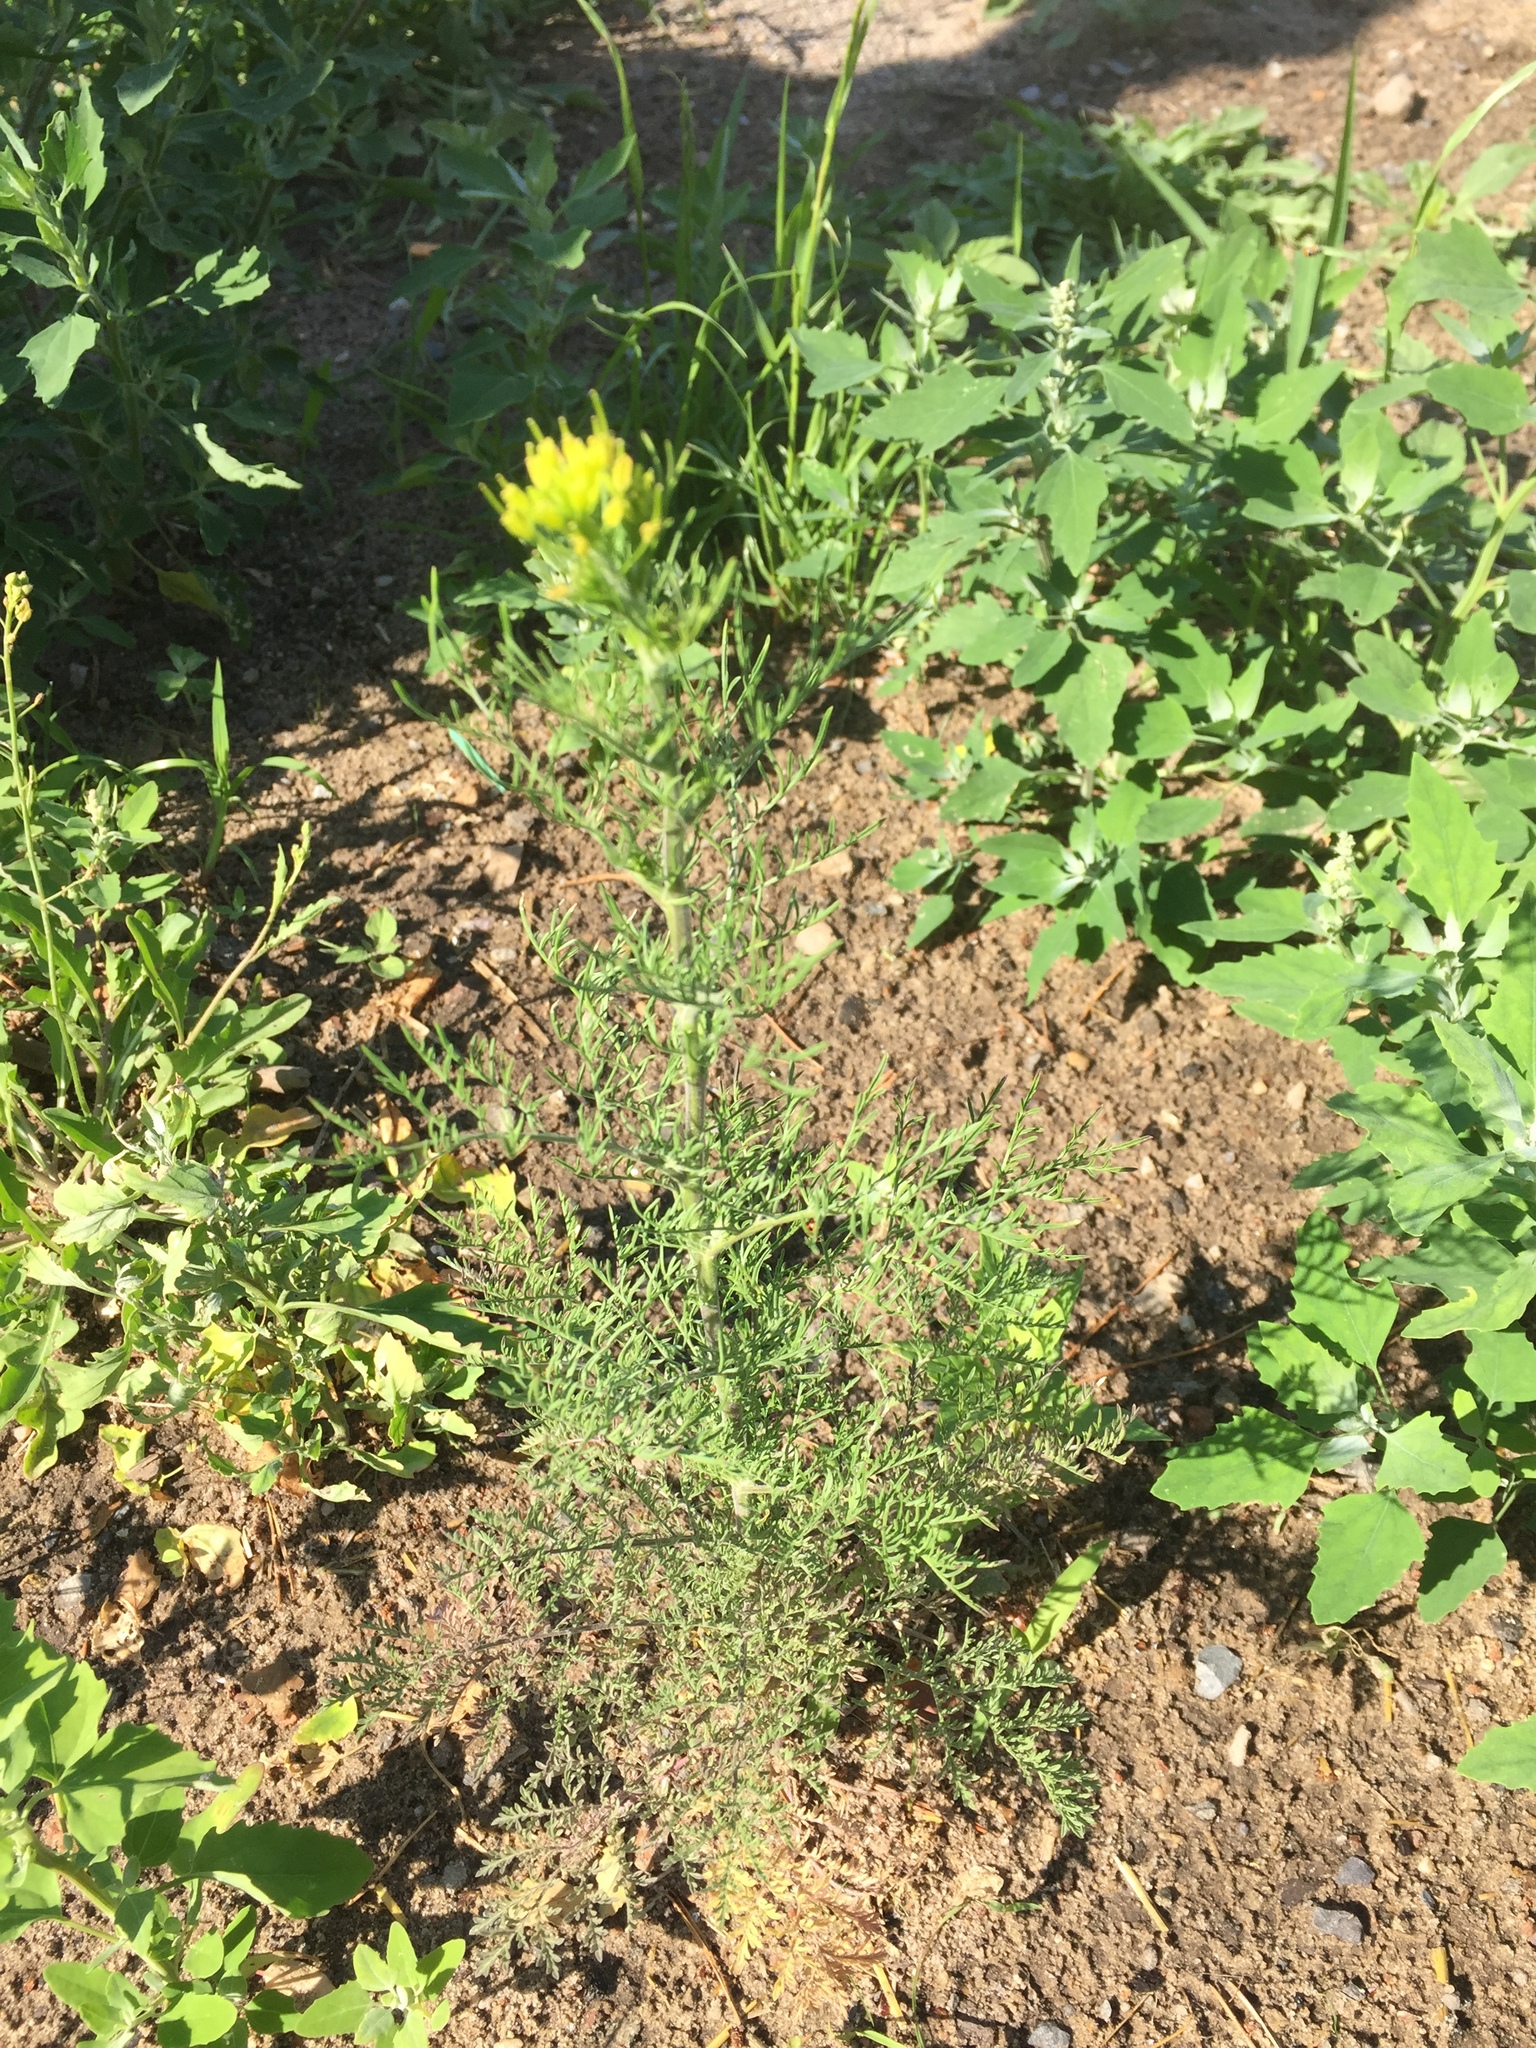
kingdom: Plantae
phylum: Tracheophyta
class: Magnoliopsida
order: Brassicales
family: Brassicaceae
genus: Descurainia
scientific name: Descurainia sophia
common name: Flixweed
